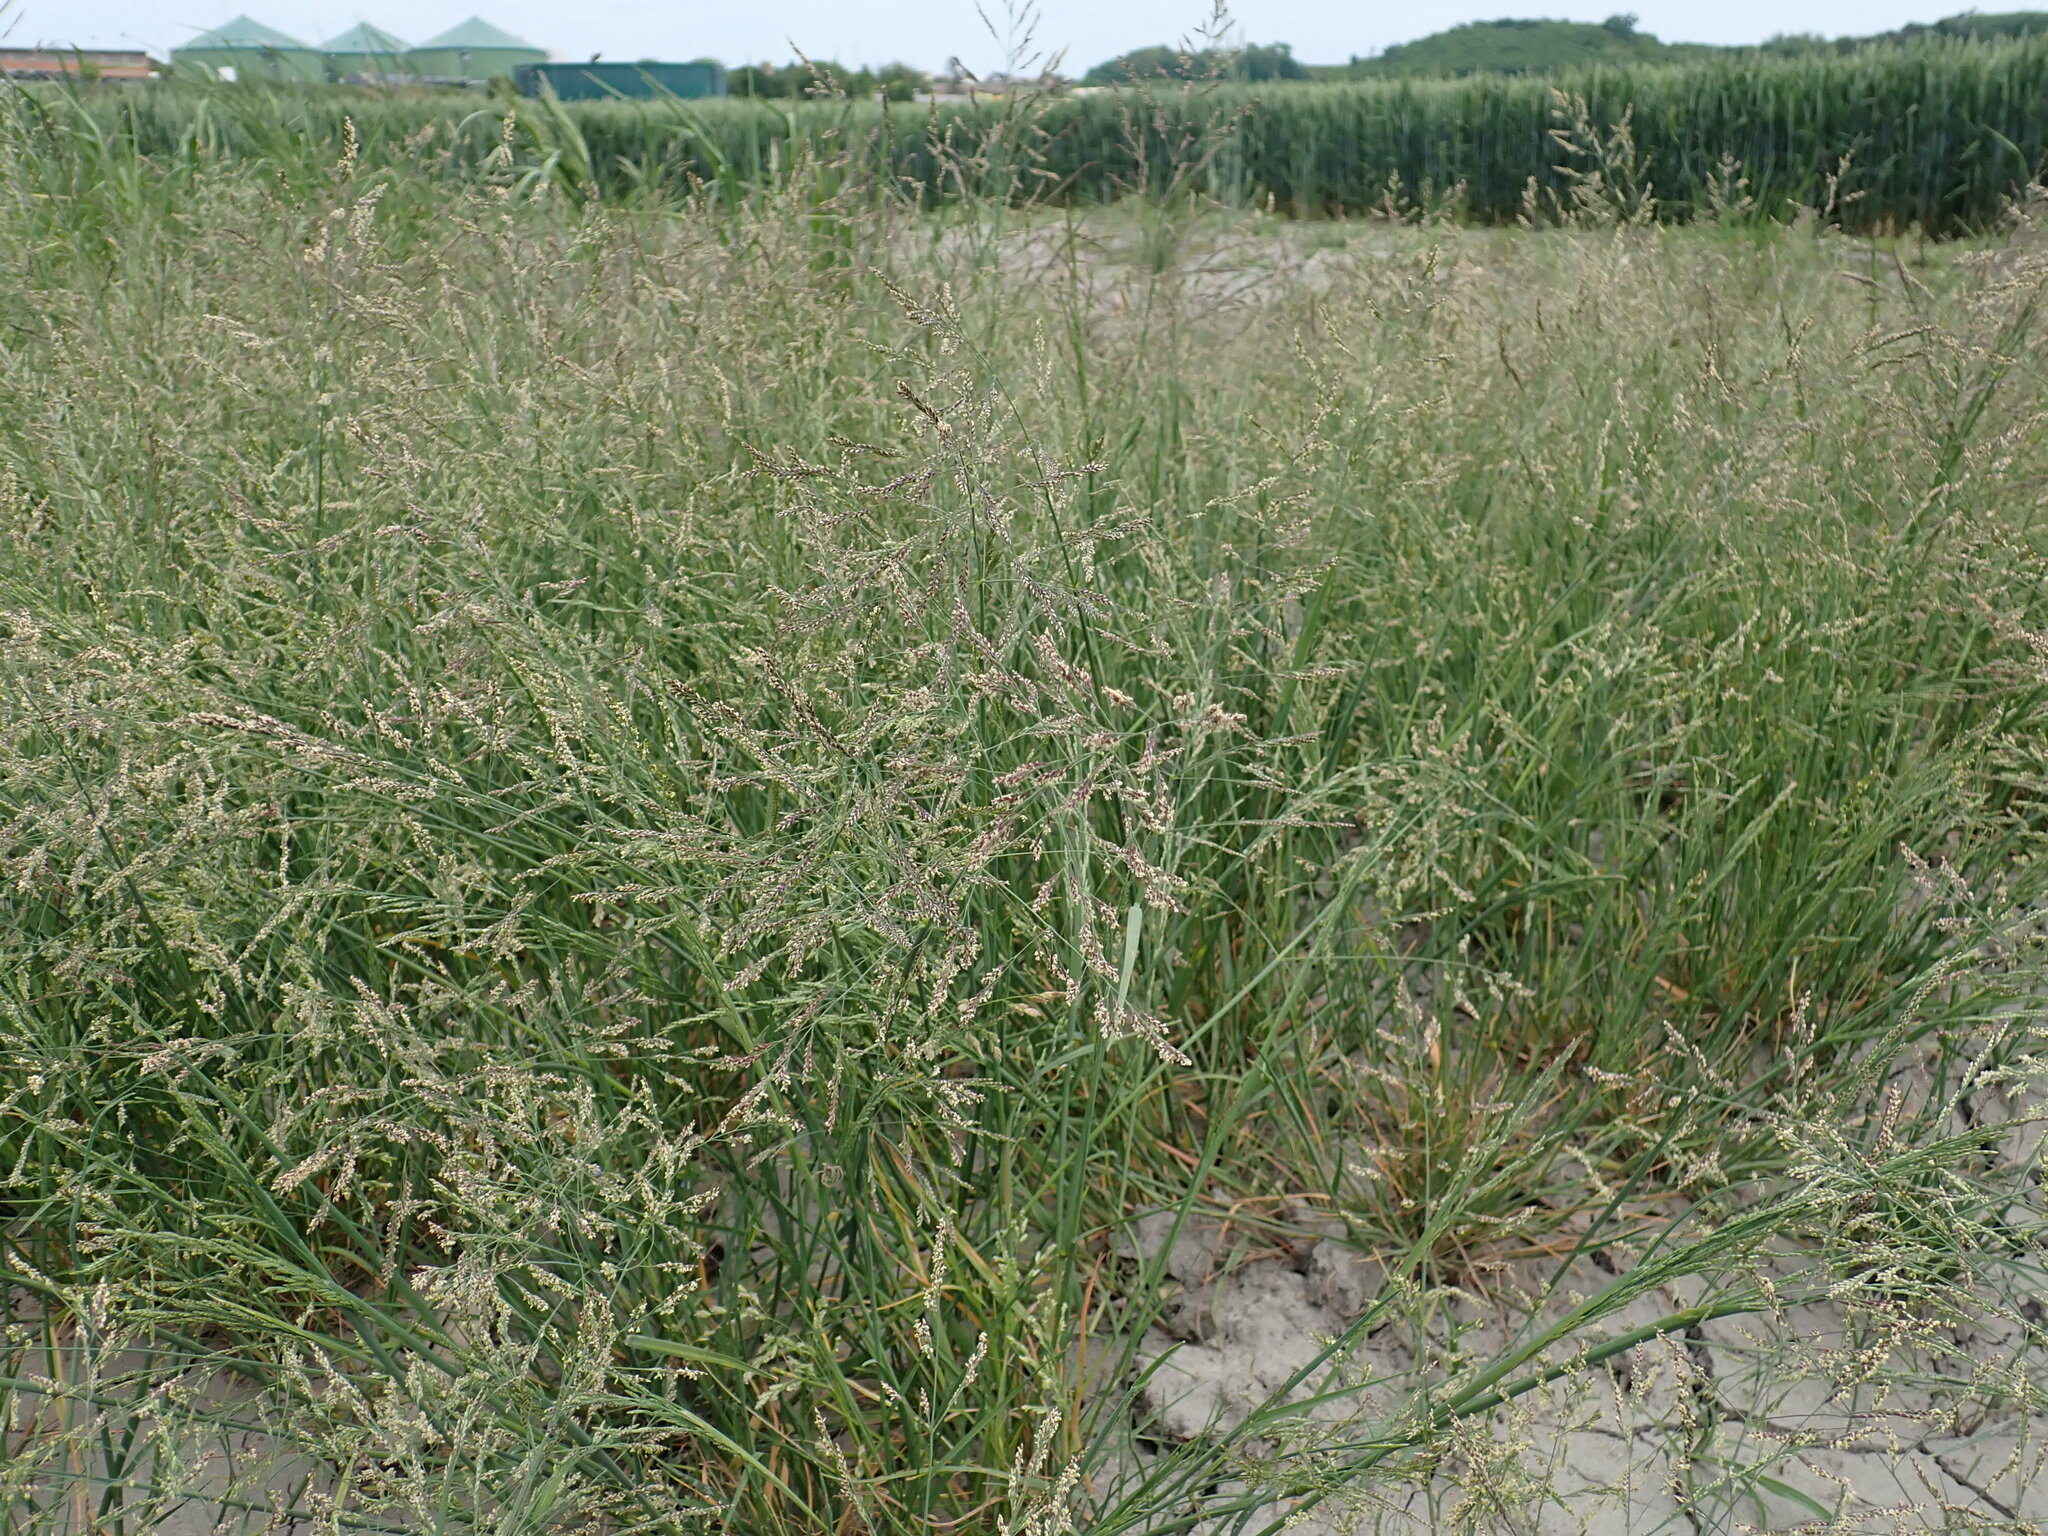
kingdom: Plantae
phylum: Tracheophyta
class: Liliopsida
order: Poales
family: Poaceae
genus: Puccinellia
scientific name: Puccinellia distans
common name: Weeping alkaligrass
